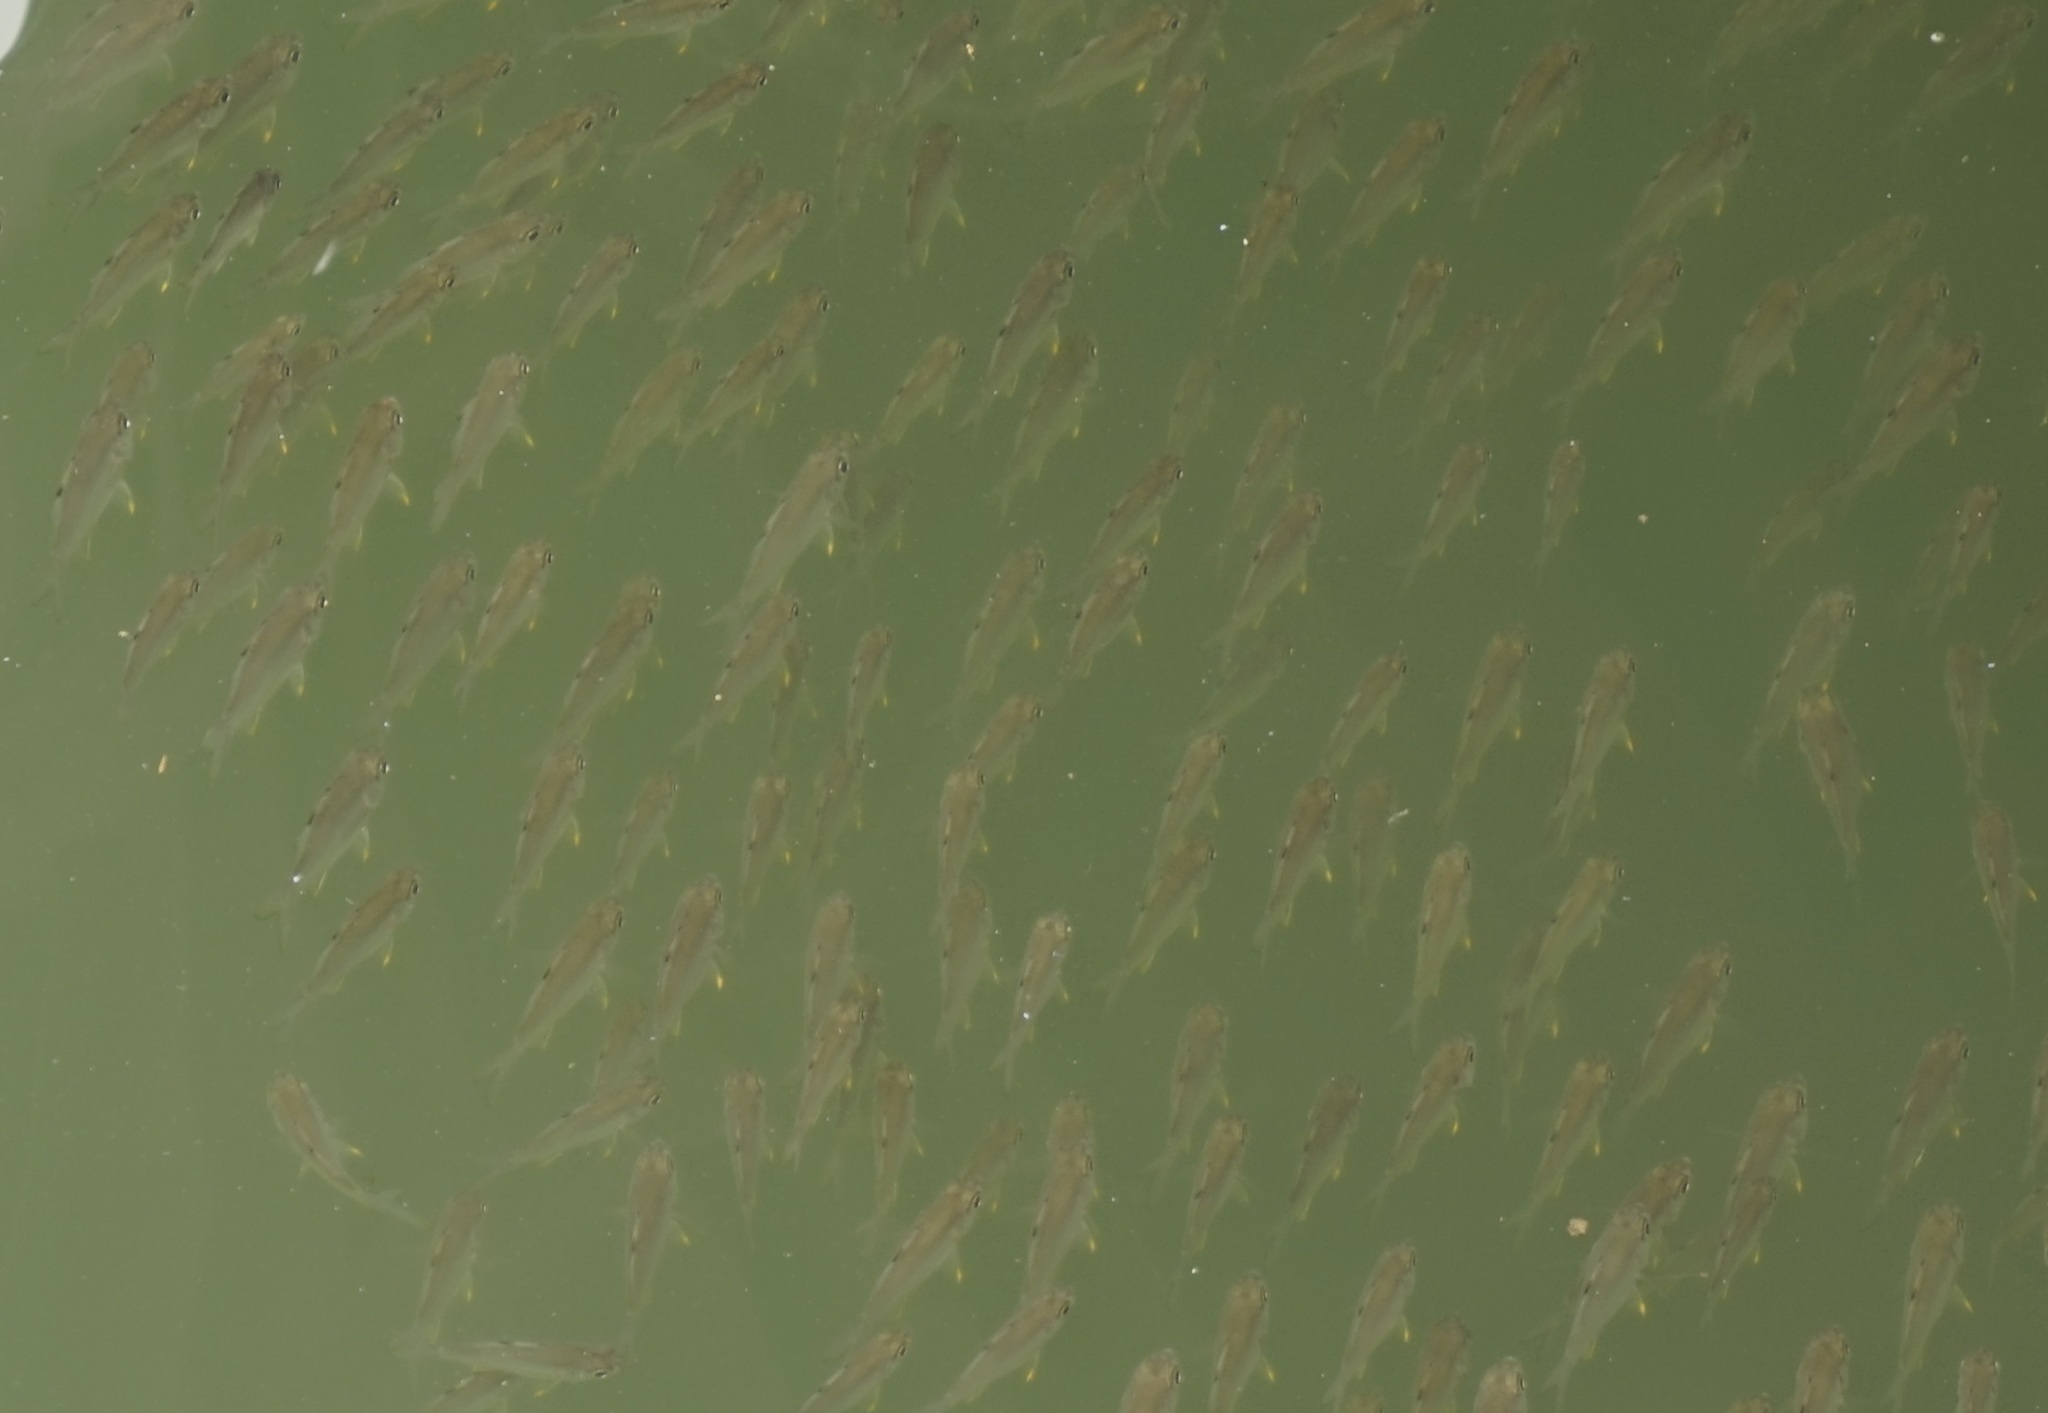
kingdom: Animalia
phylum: Chordata
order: Perciformes
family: Ambassidae
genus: Ambassis
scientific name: Ambassis kopsii
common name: Freckled hawkfish
